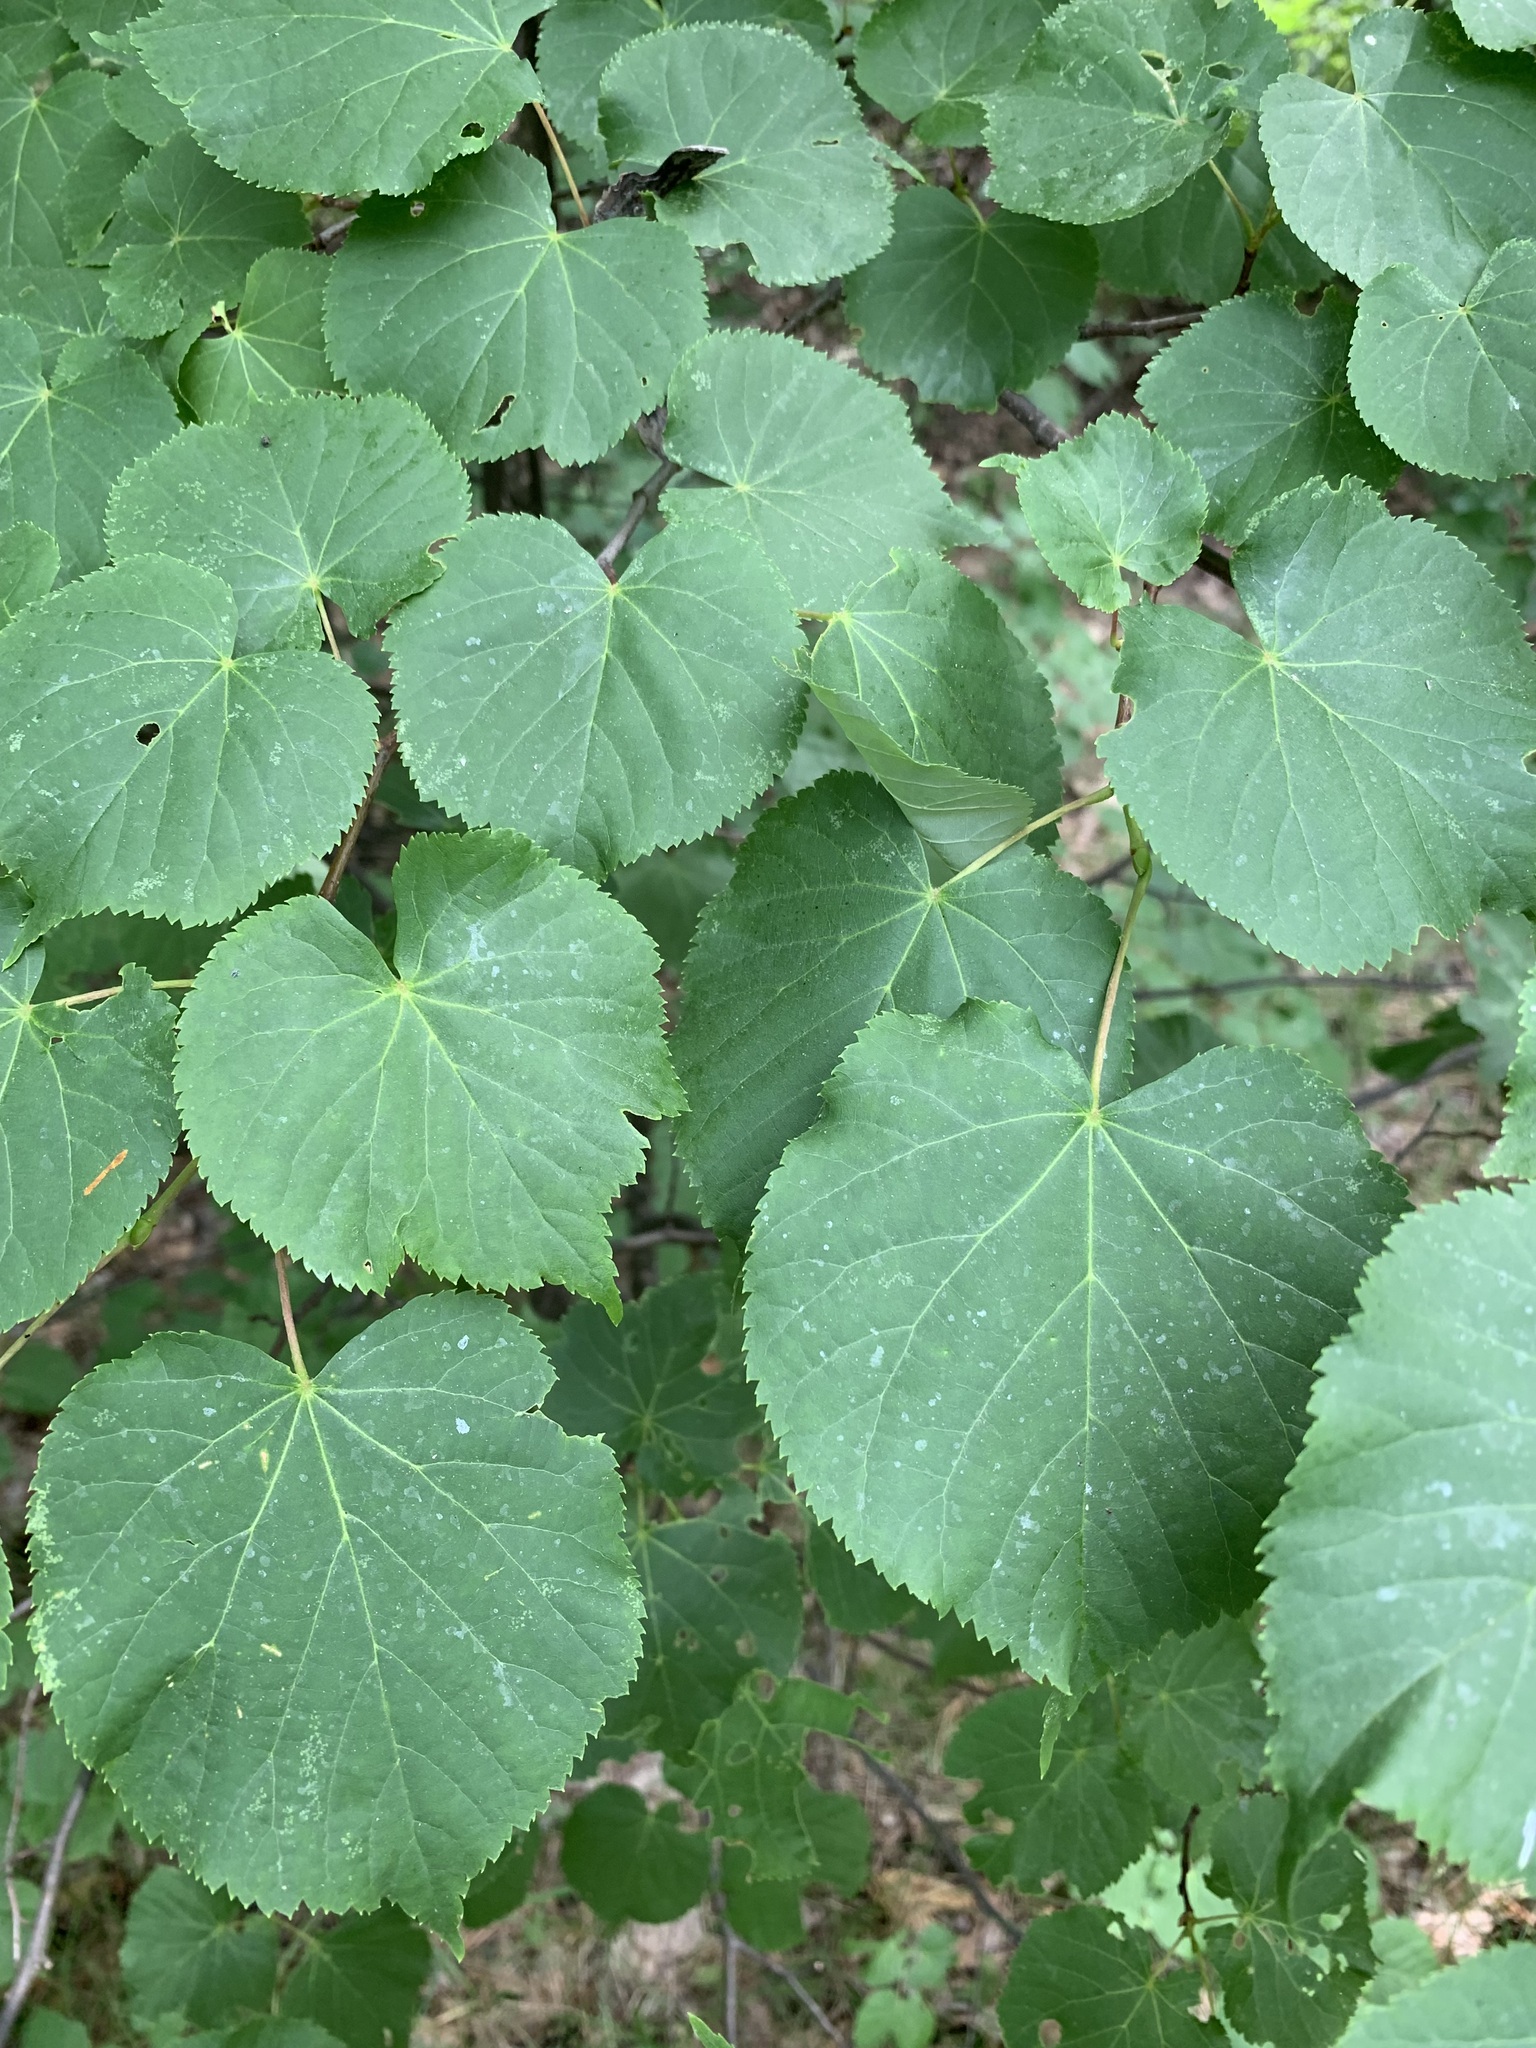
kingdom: Plantae
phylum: Tracheophyta
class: Magnoliopsida
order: Malvales
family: Malvaceae
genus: Tilia
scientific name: Tilia cordata
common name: Small-leaved lime
